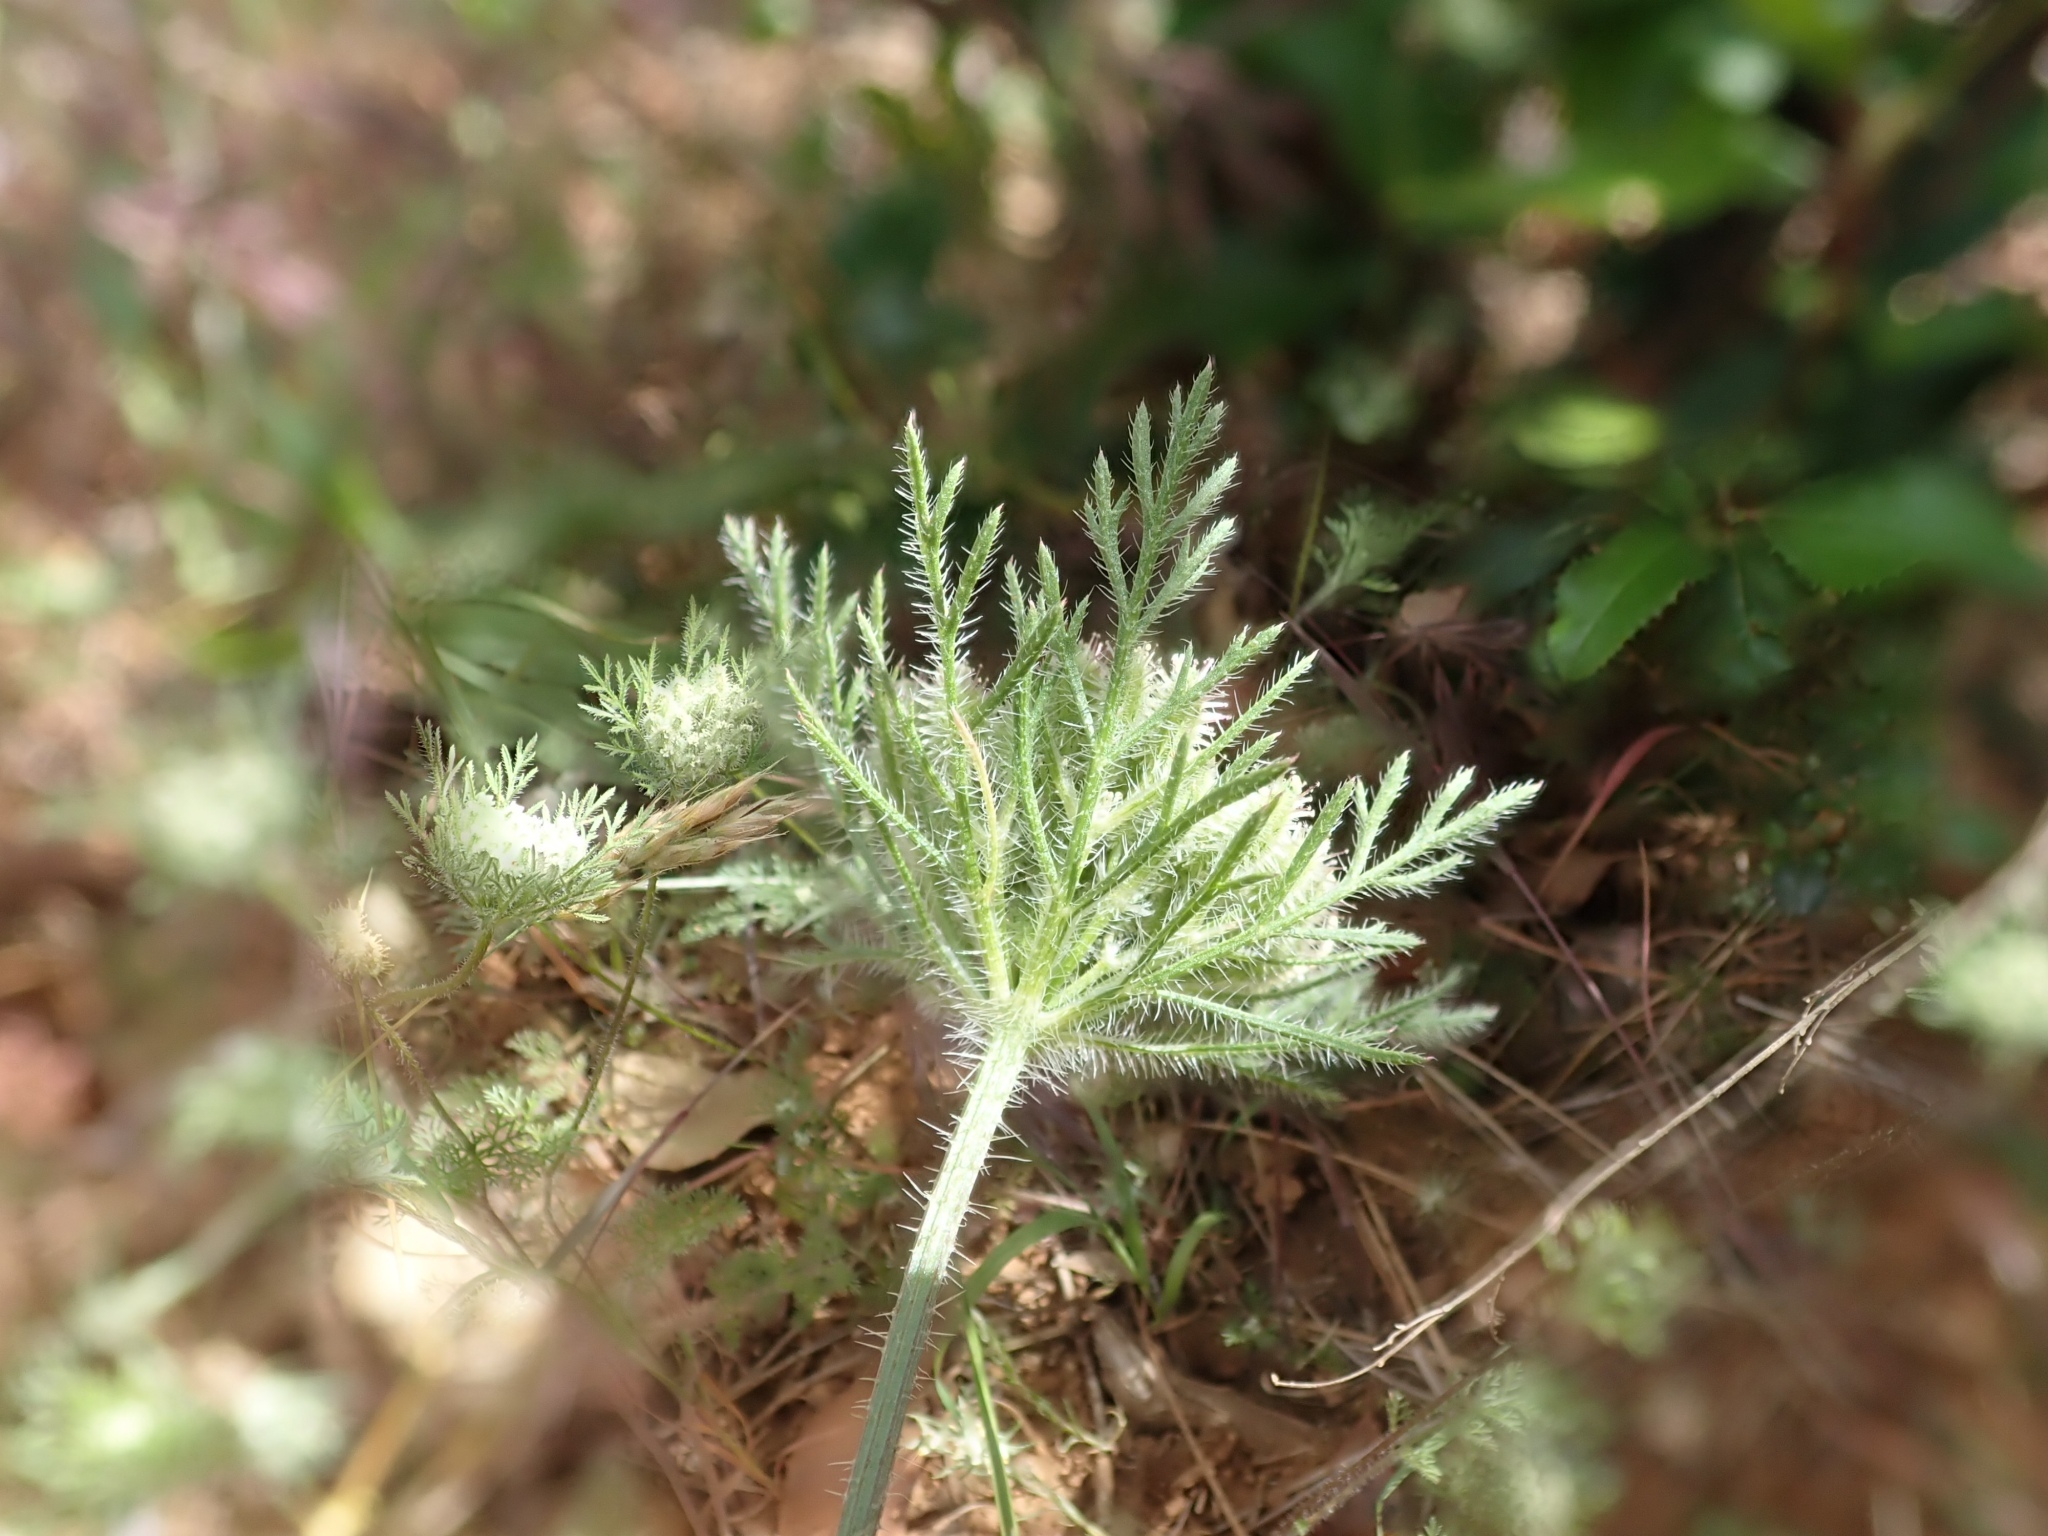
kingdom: Plantae
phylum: Tracheophyta
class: Magnoliopsida
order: Apiales
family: Apiaceae
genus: Daucus
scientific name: Daucus pusillus
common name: Southwest wild carrot
